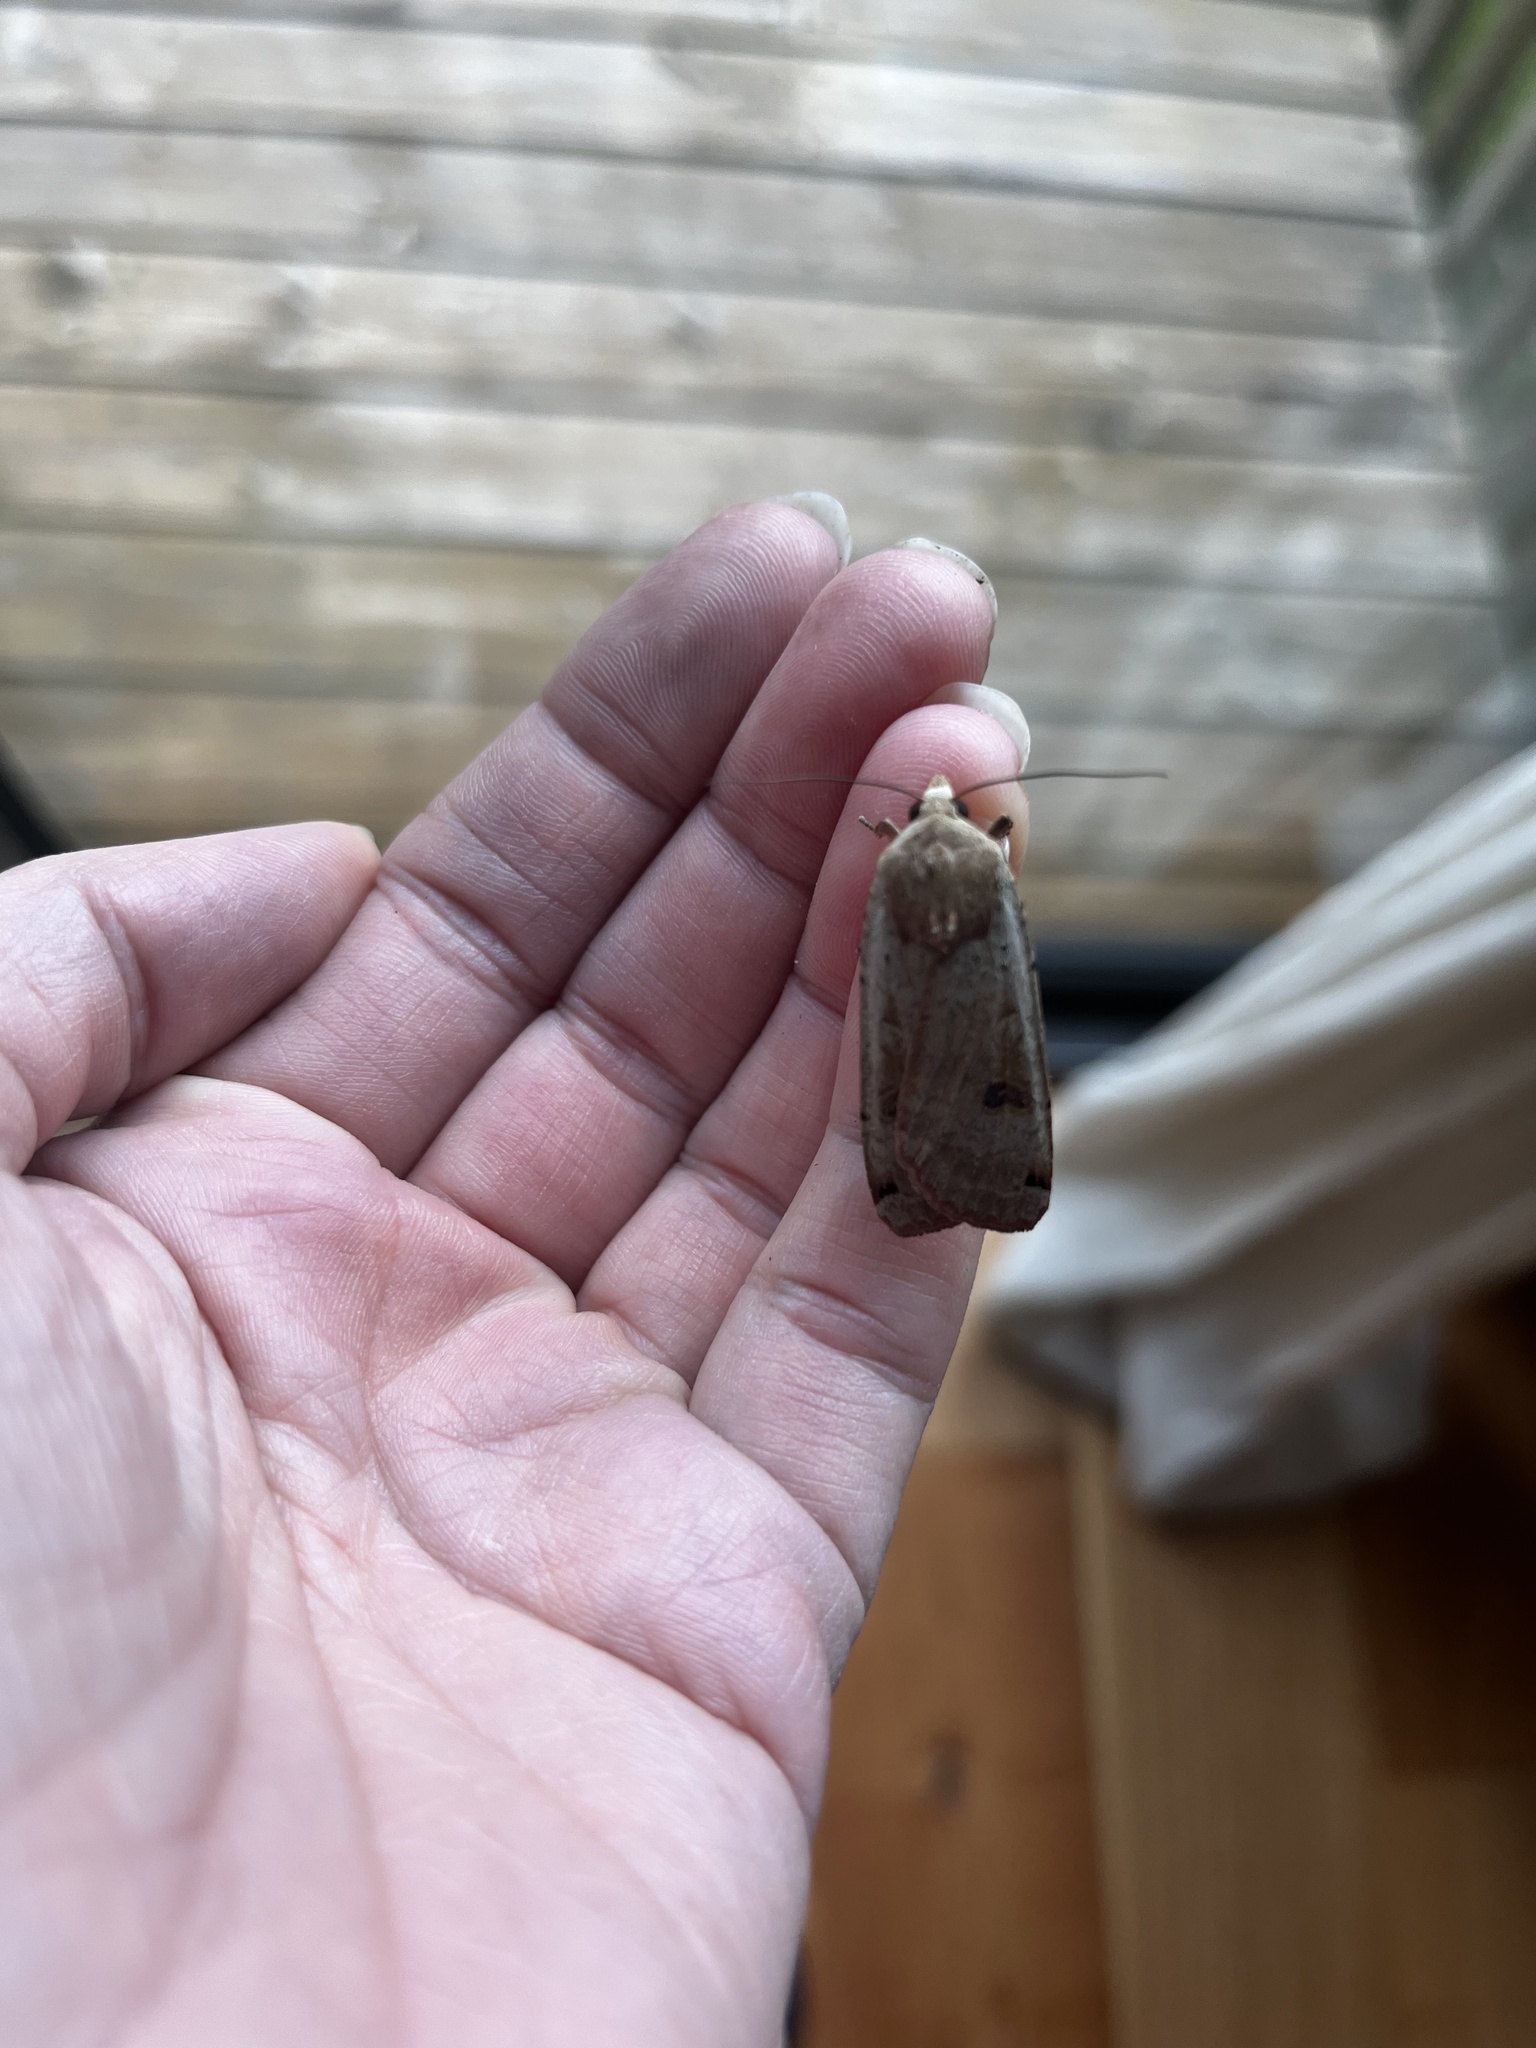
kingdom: Animalia
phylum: Arthropoda
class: Insecta
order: Lepidoptera
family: Noctuidae
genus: Noctua
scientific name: Noctua pronuba
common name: Large yellow underwing
